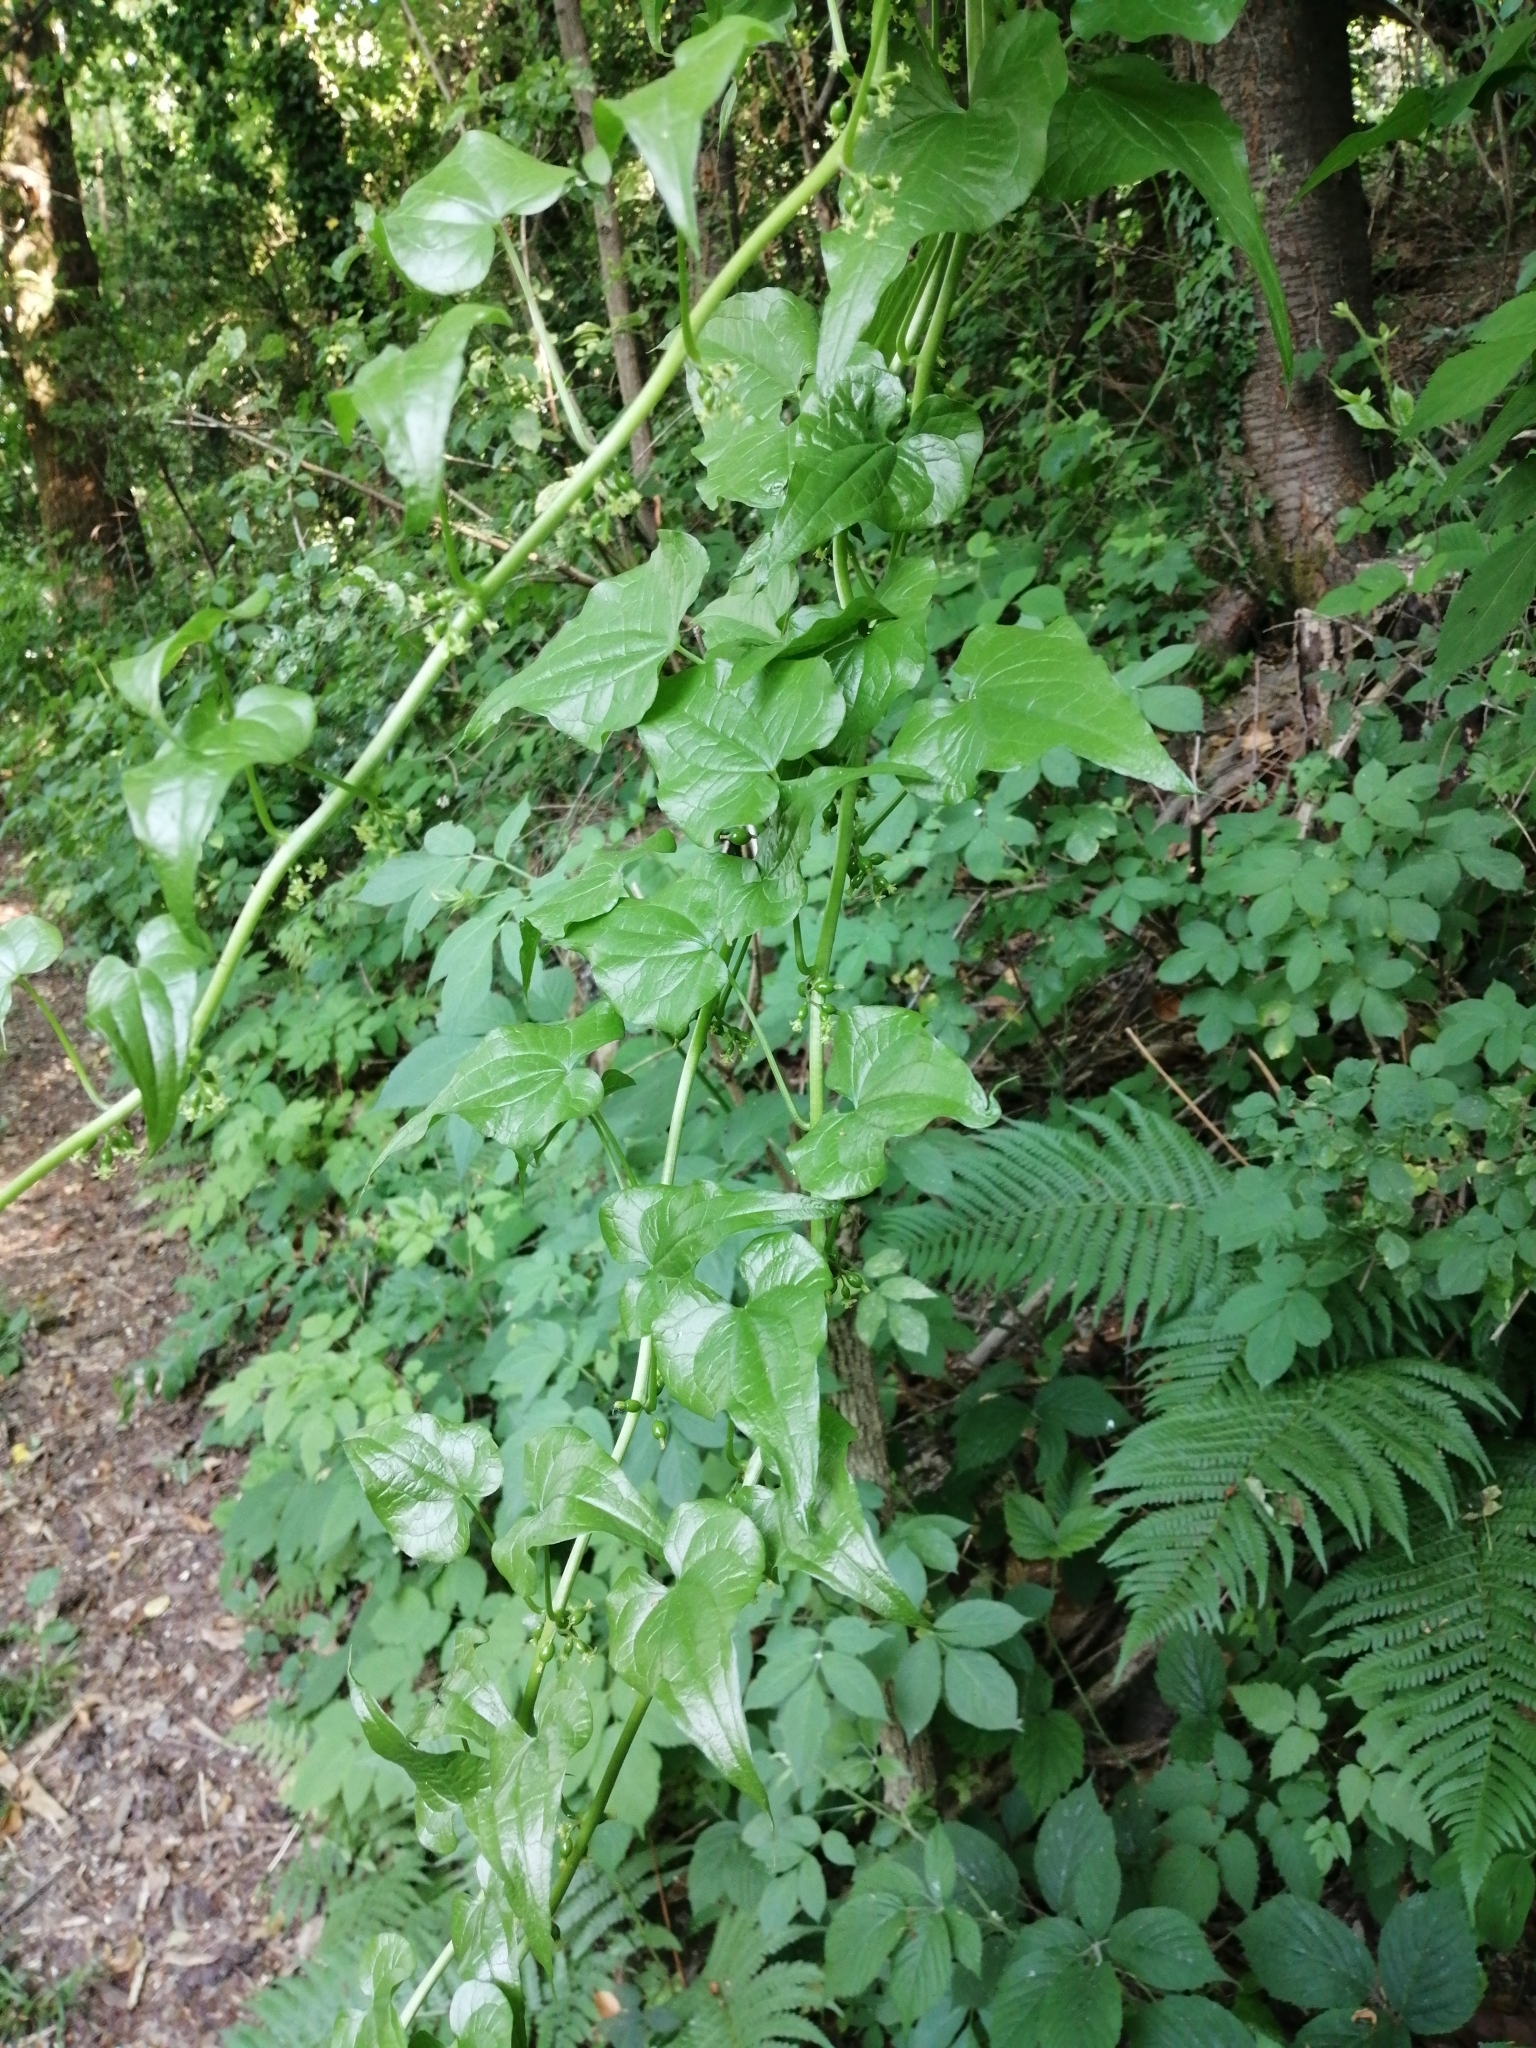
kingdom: Plantae
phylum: Tracheophyta
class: Liliopsida
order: Dioscoreales
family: Dioscoreaceae
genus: Dioscorea
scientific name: Dioscorea communis
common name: Black-bindweed
